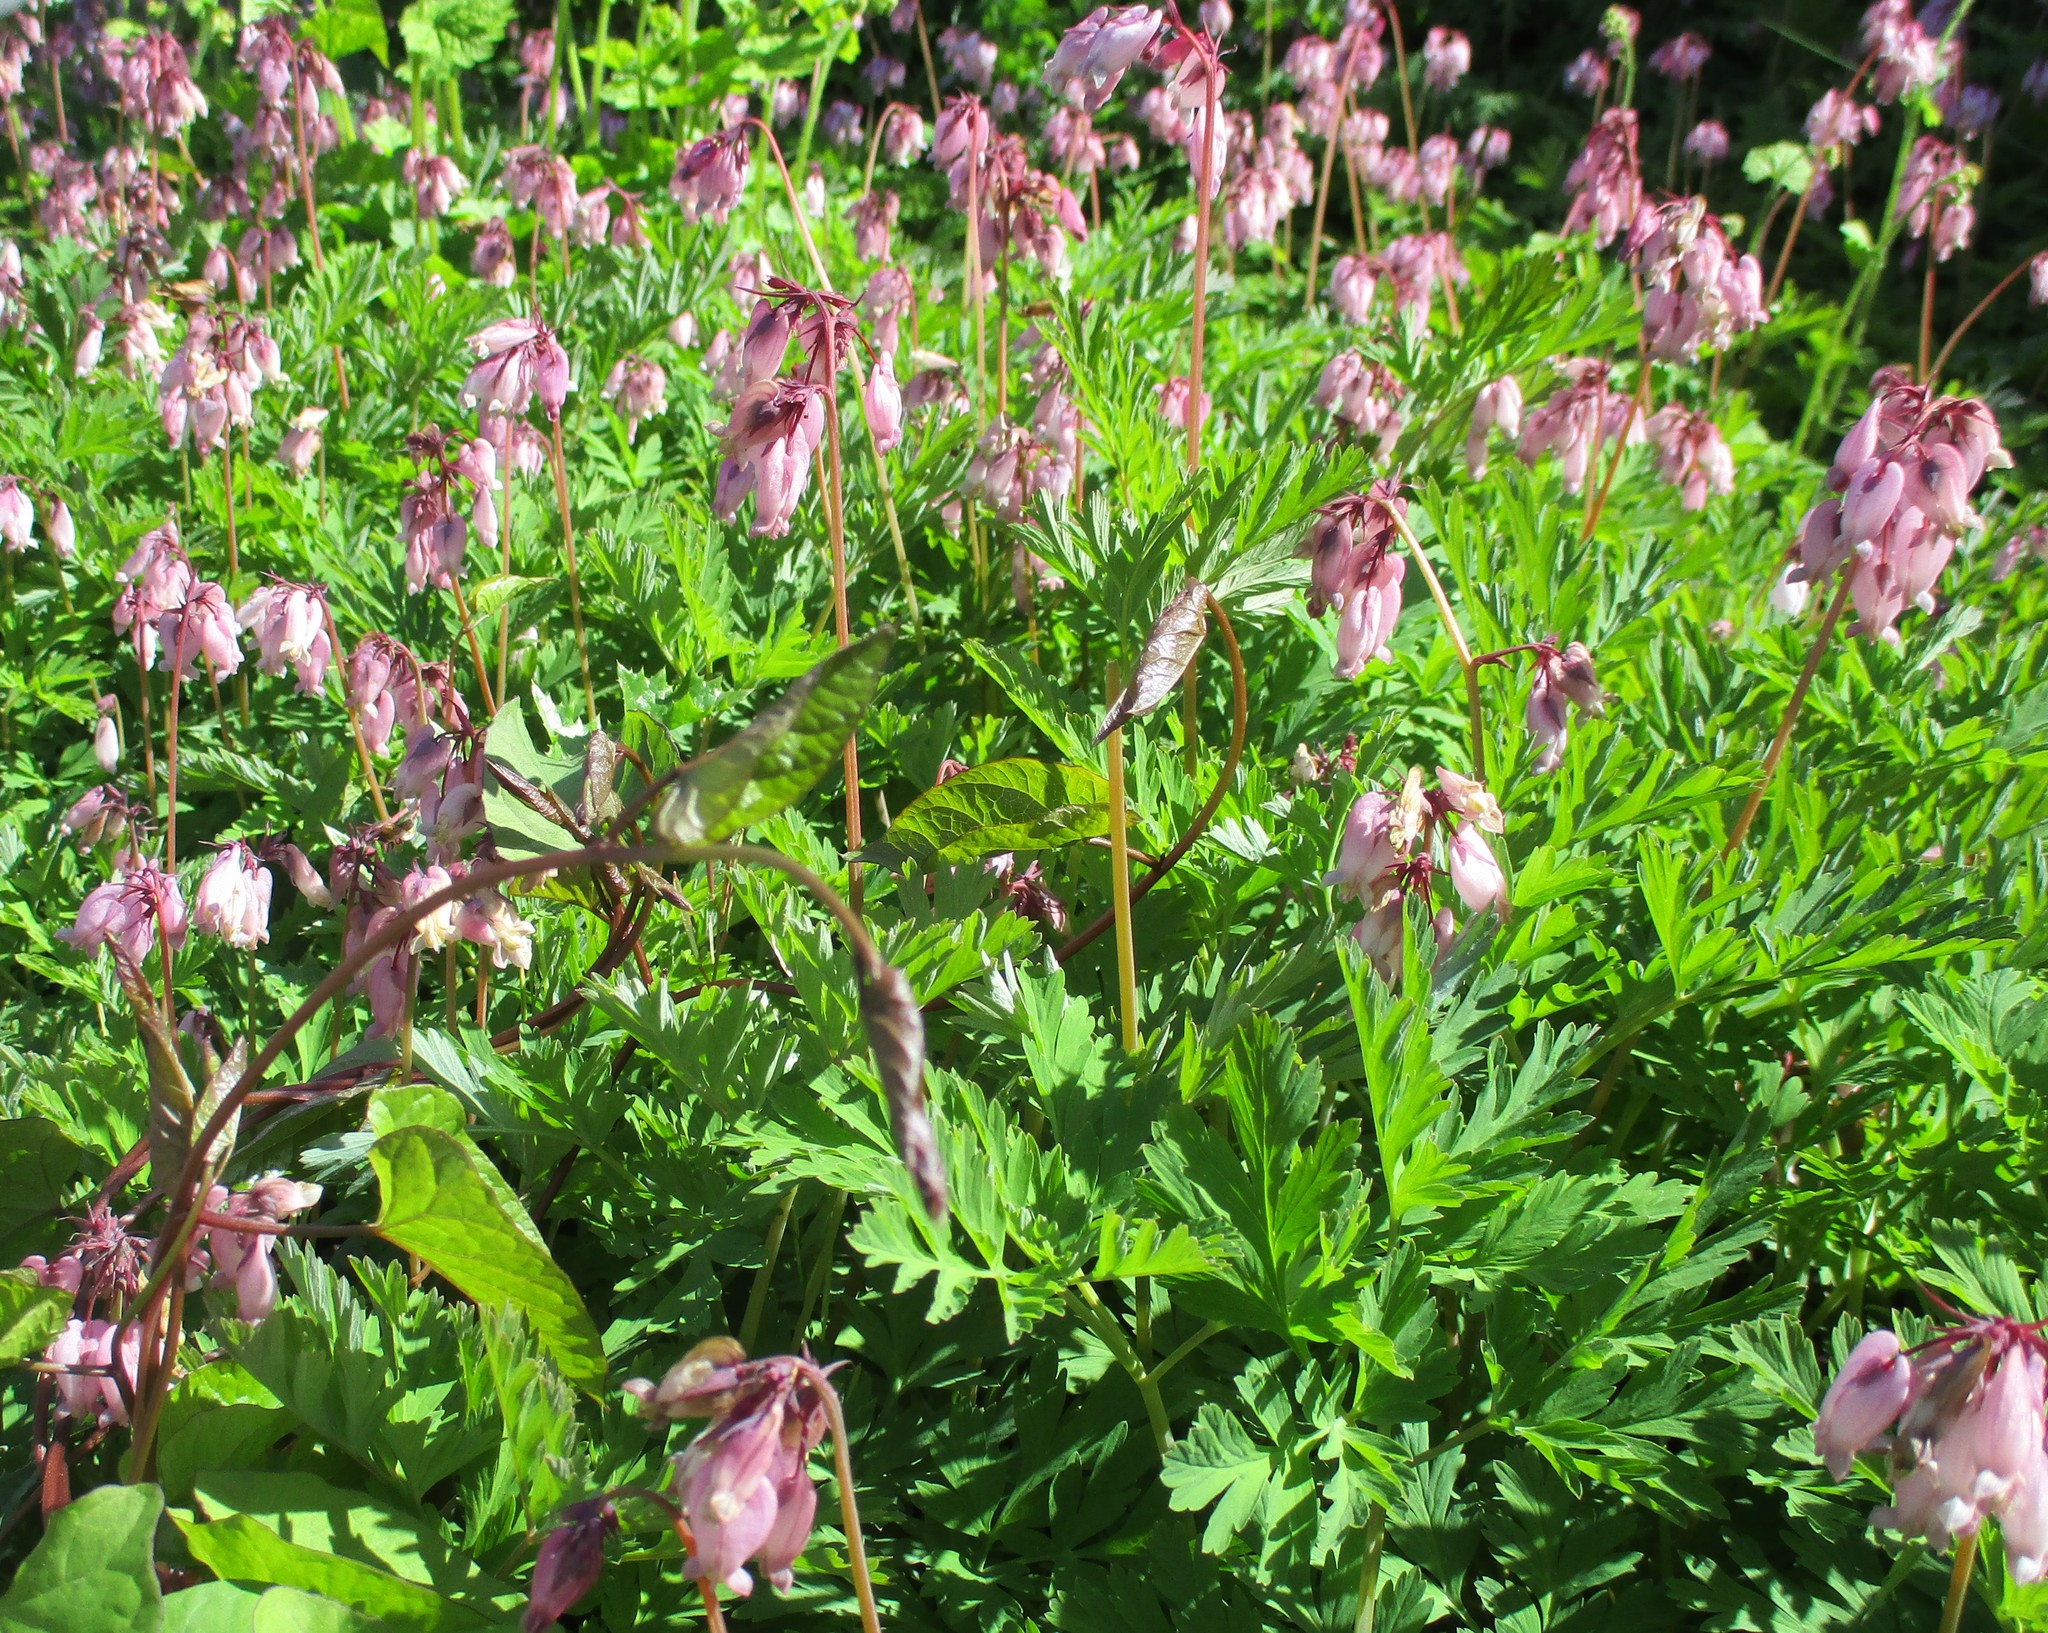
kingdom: Plantae
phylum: Tracheophyta
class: Magnoliopsida
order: Ranunculales
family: Papaveraceae
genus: Dicentra
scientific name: Dicentra formosa
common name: Bleeding-heart
